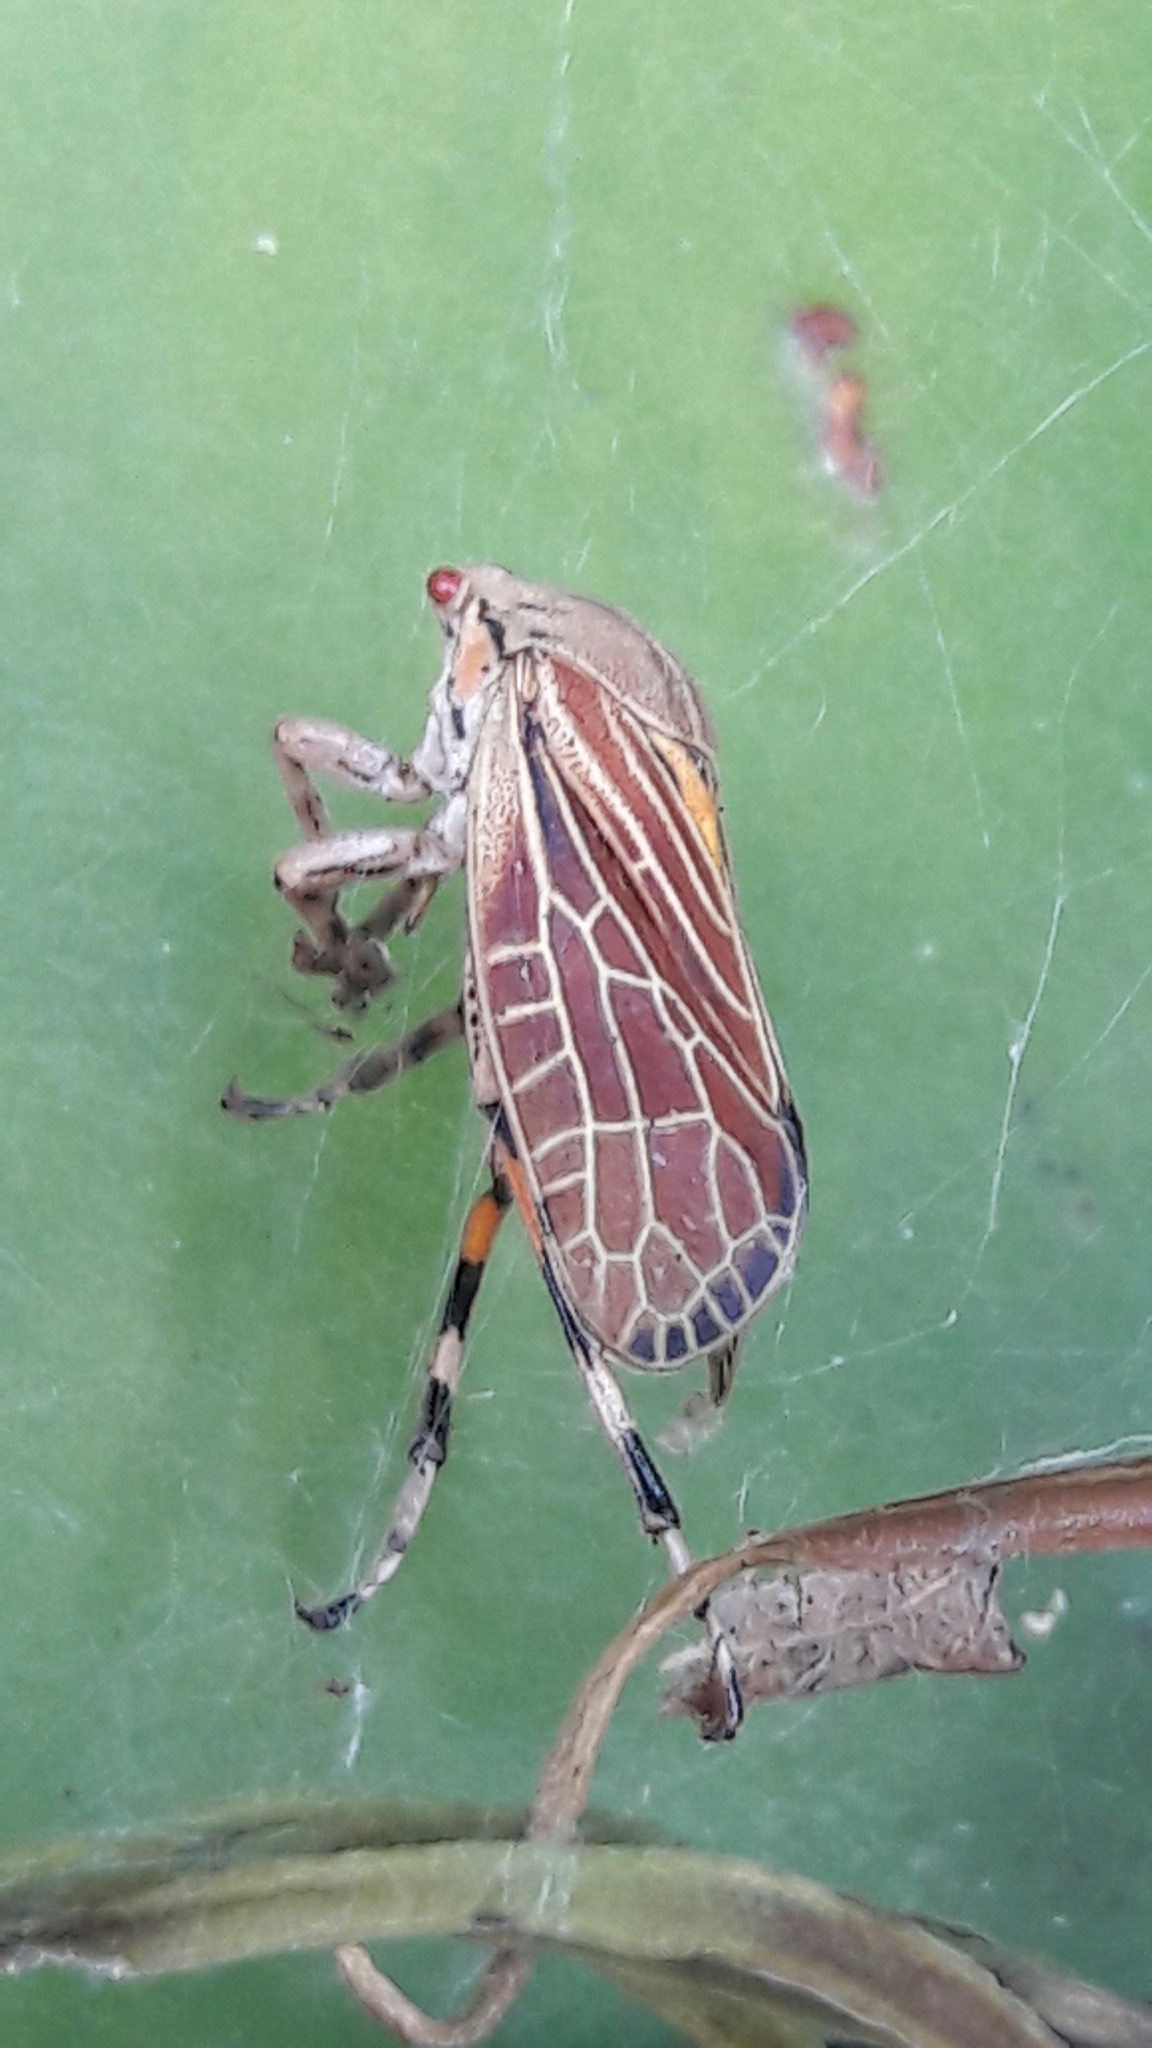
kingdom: Animalia
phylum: Arthropoda
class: Insecta
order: Hemiptera
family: Aetalionidae
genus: Aetalion
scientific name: Aetalion reticulatum
